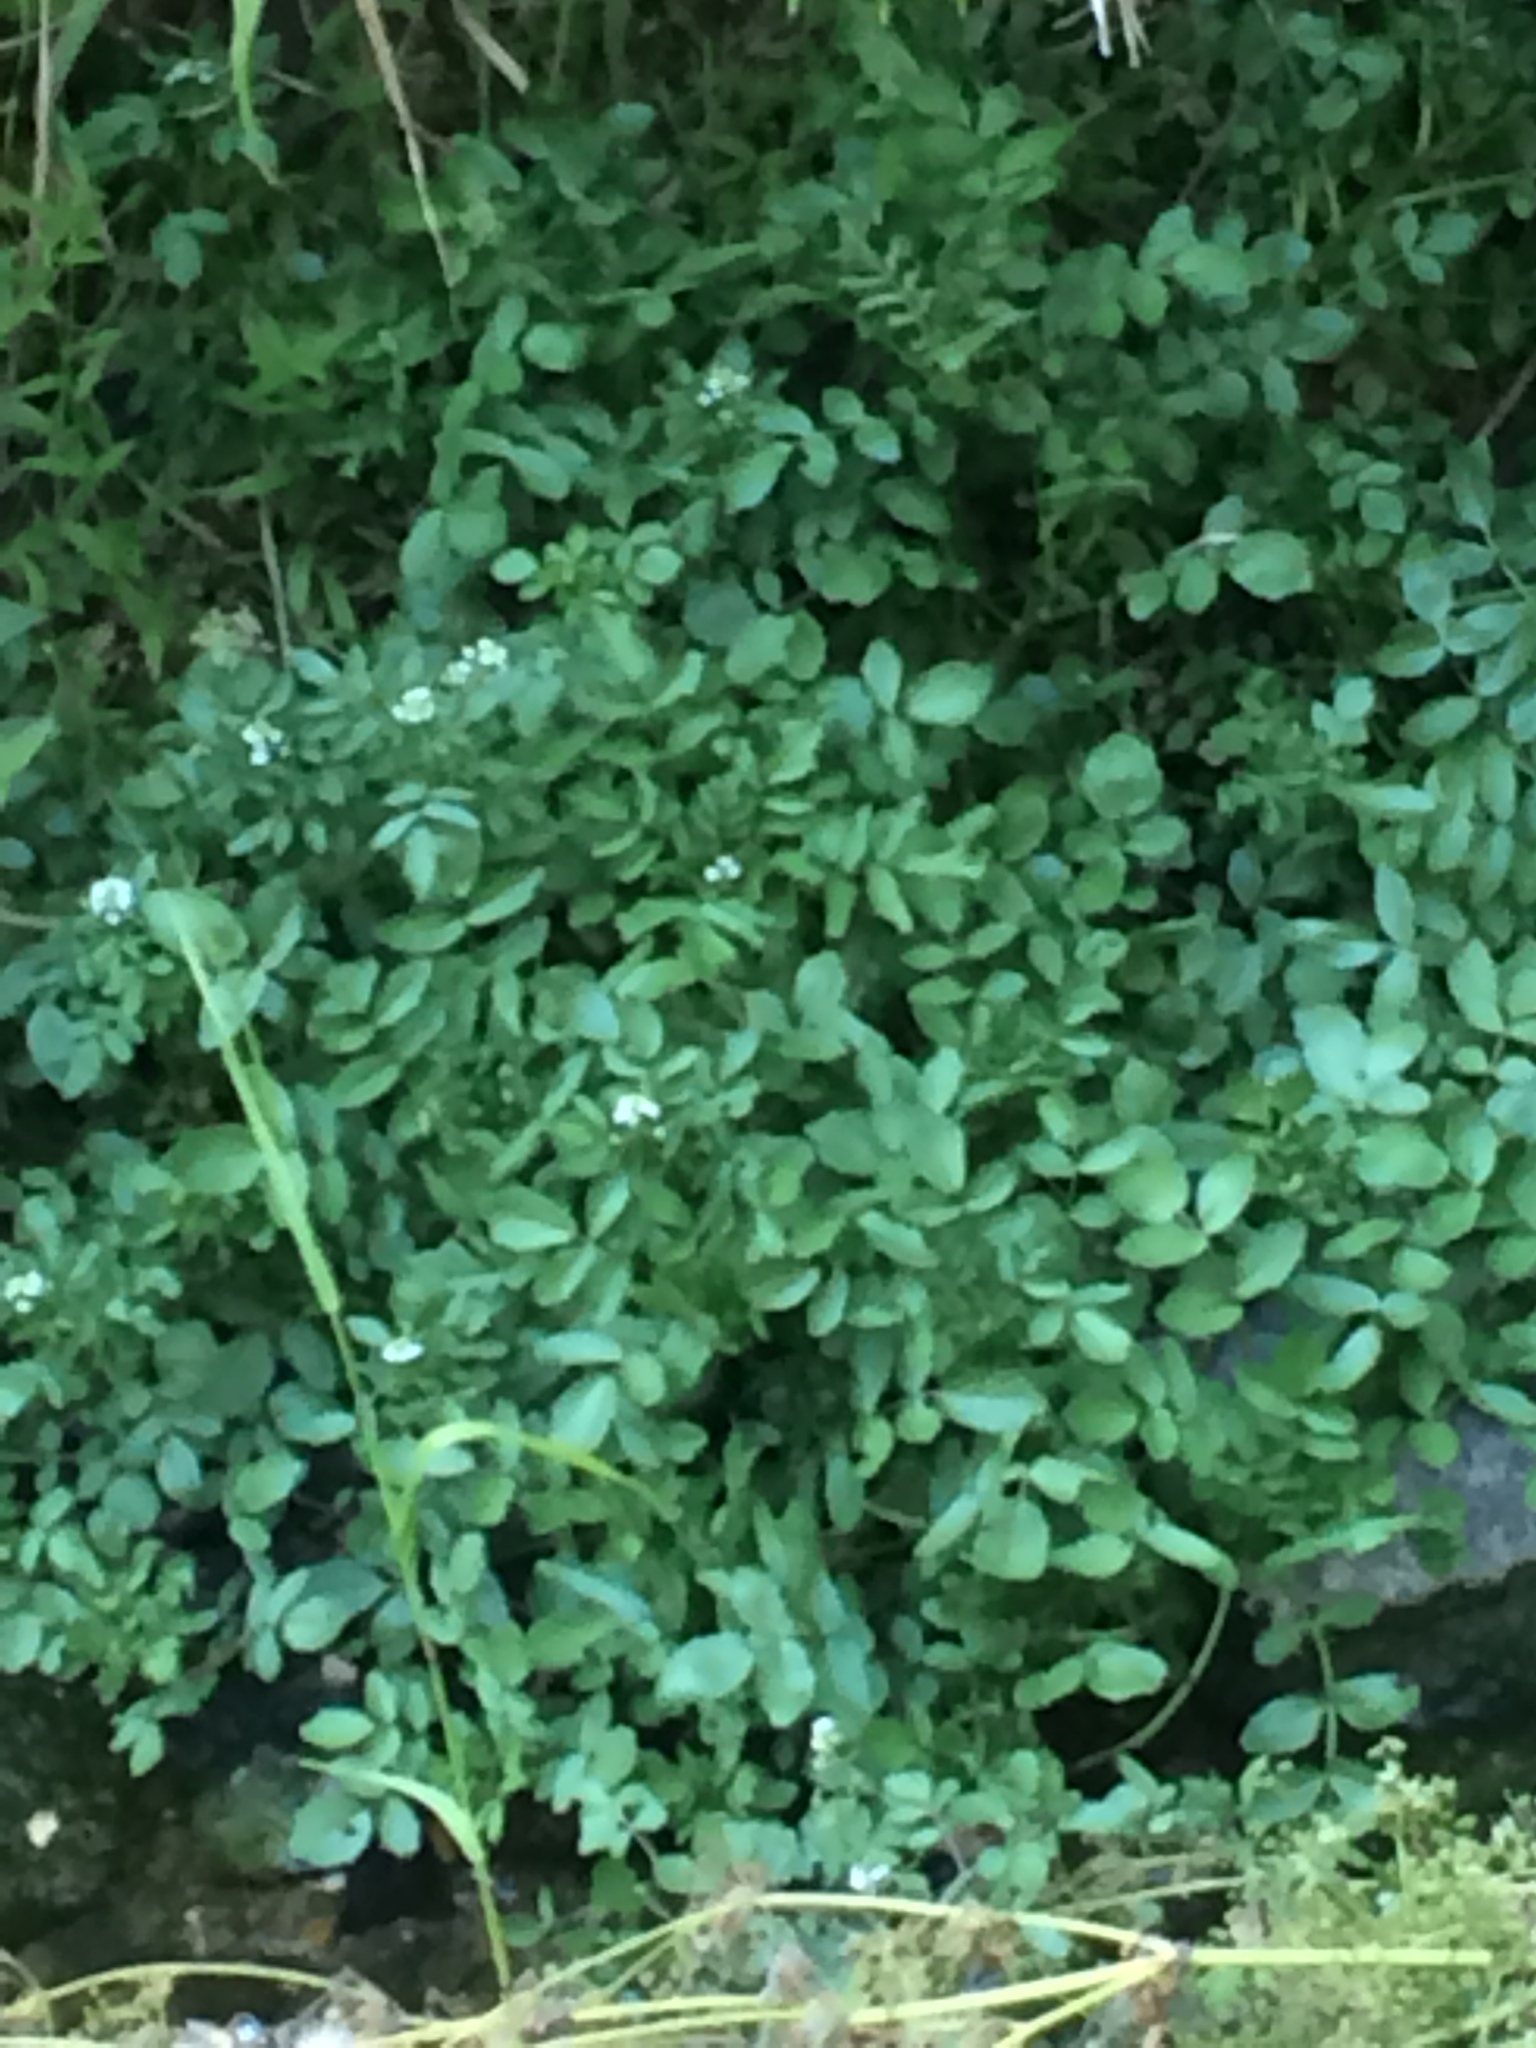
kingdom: Plantae
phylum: Tracheophyta
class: Magnoliopsida
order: Brassicales
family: Brassicaceae
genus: Nasturtium
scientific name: Nasturtium officinale
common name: Watercress
